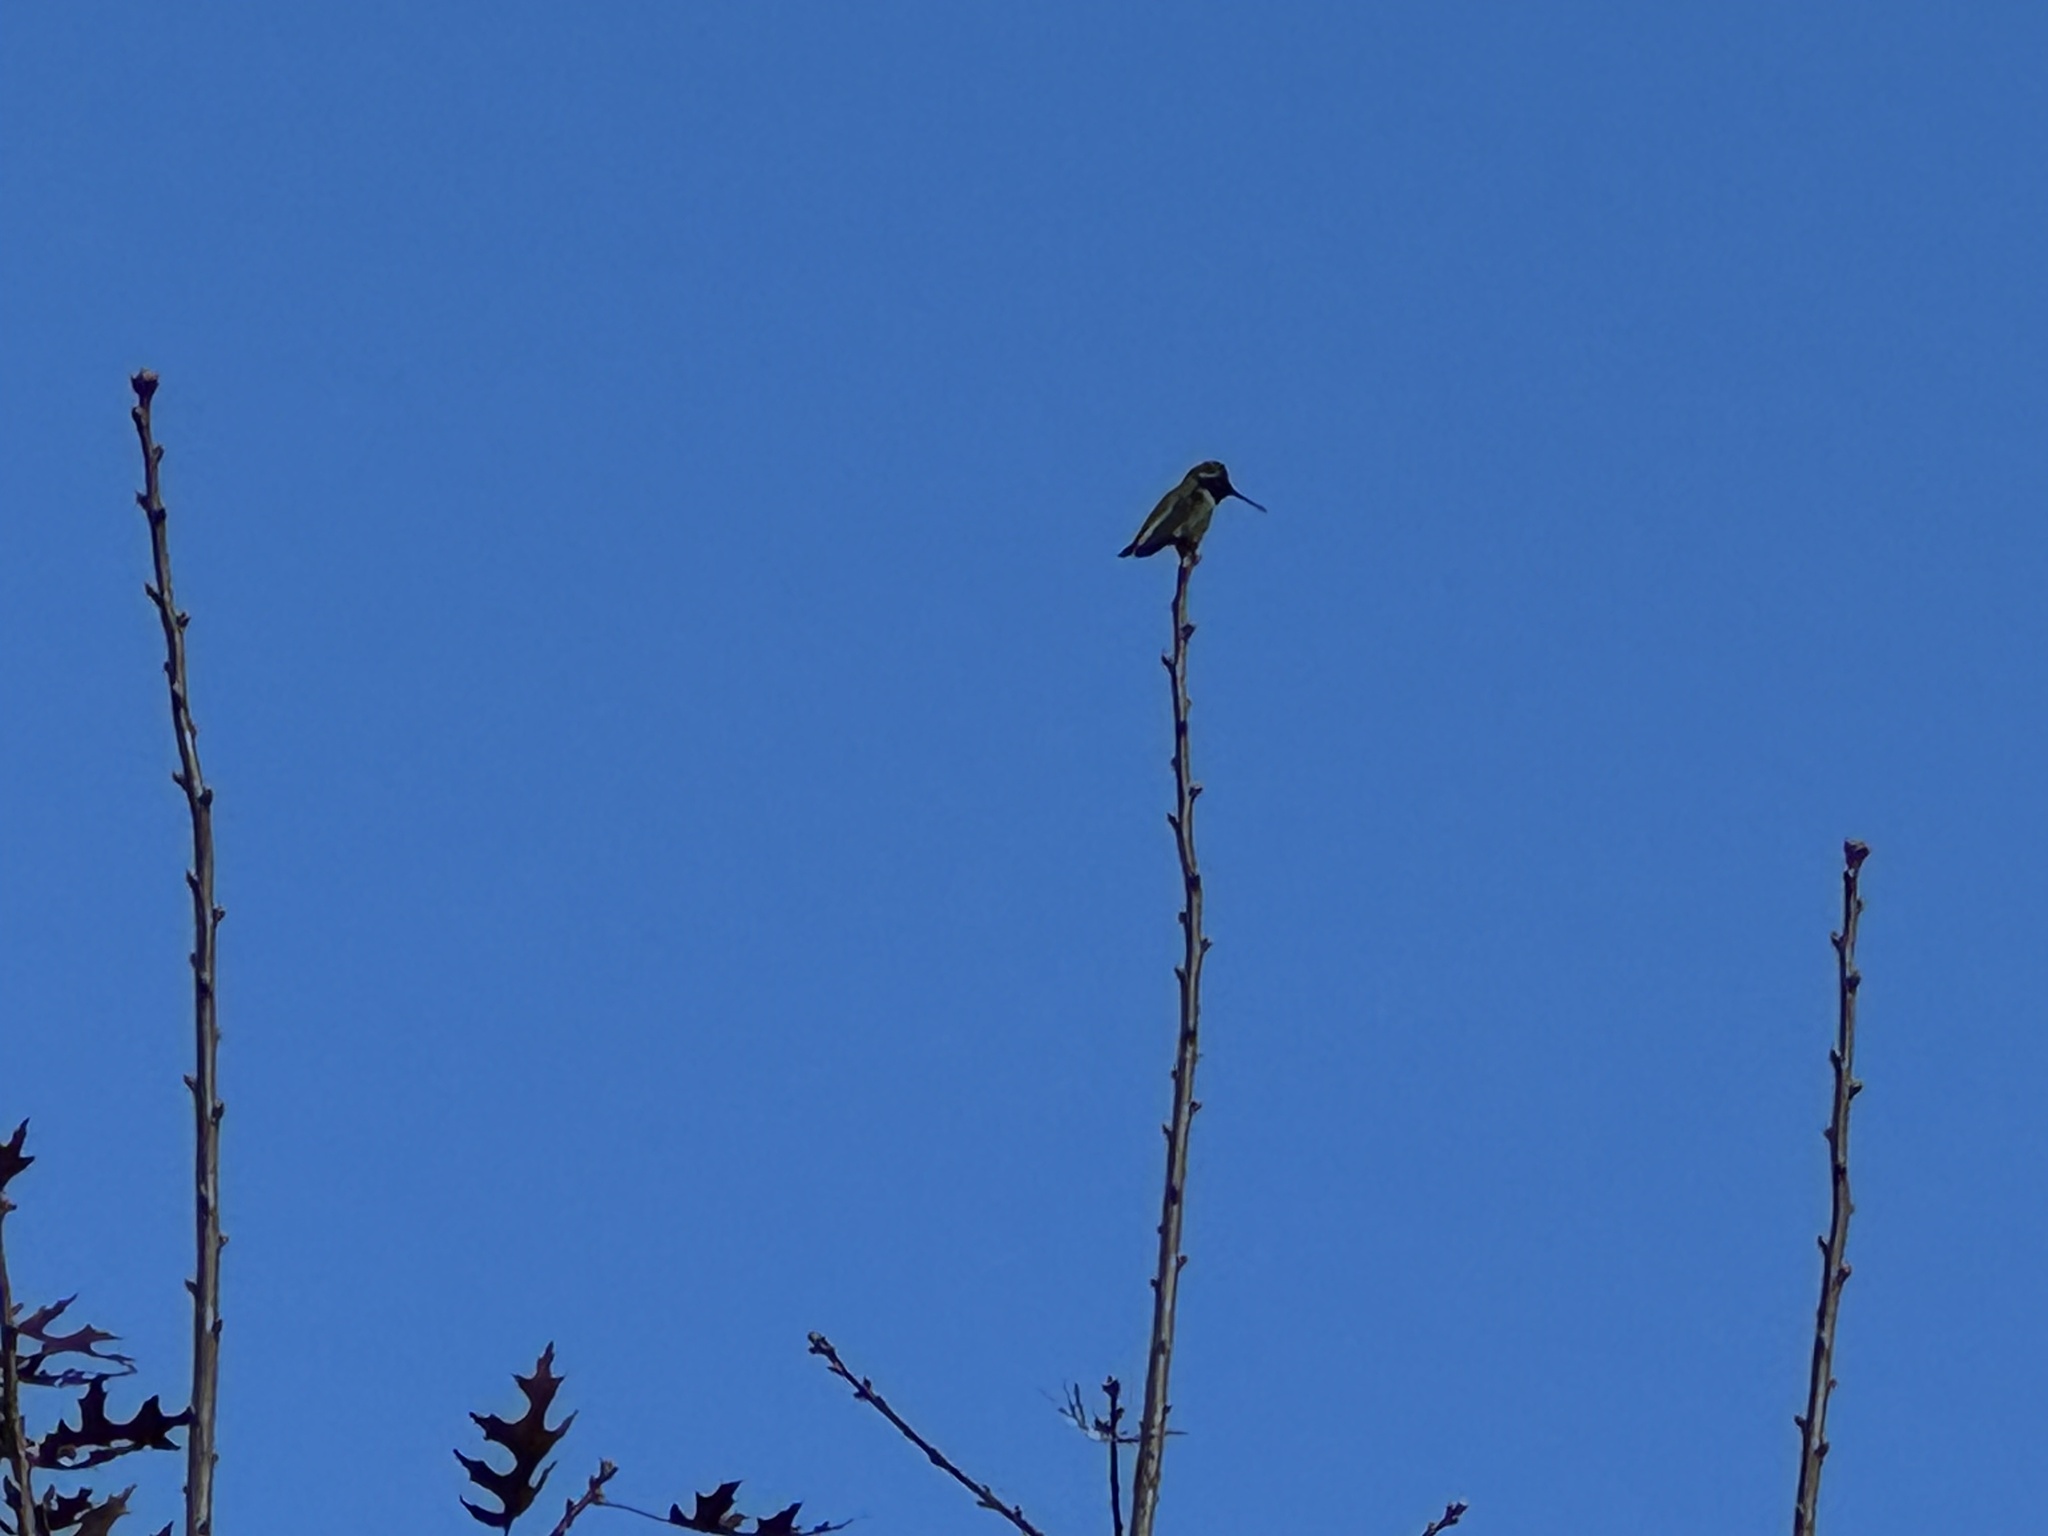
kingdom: Animalia
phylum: Chordata
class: Aves
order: Apodiformes
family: Trochilidae
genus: Calypte
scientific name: Calypte anna
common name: Anna's hummingbird
